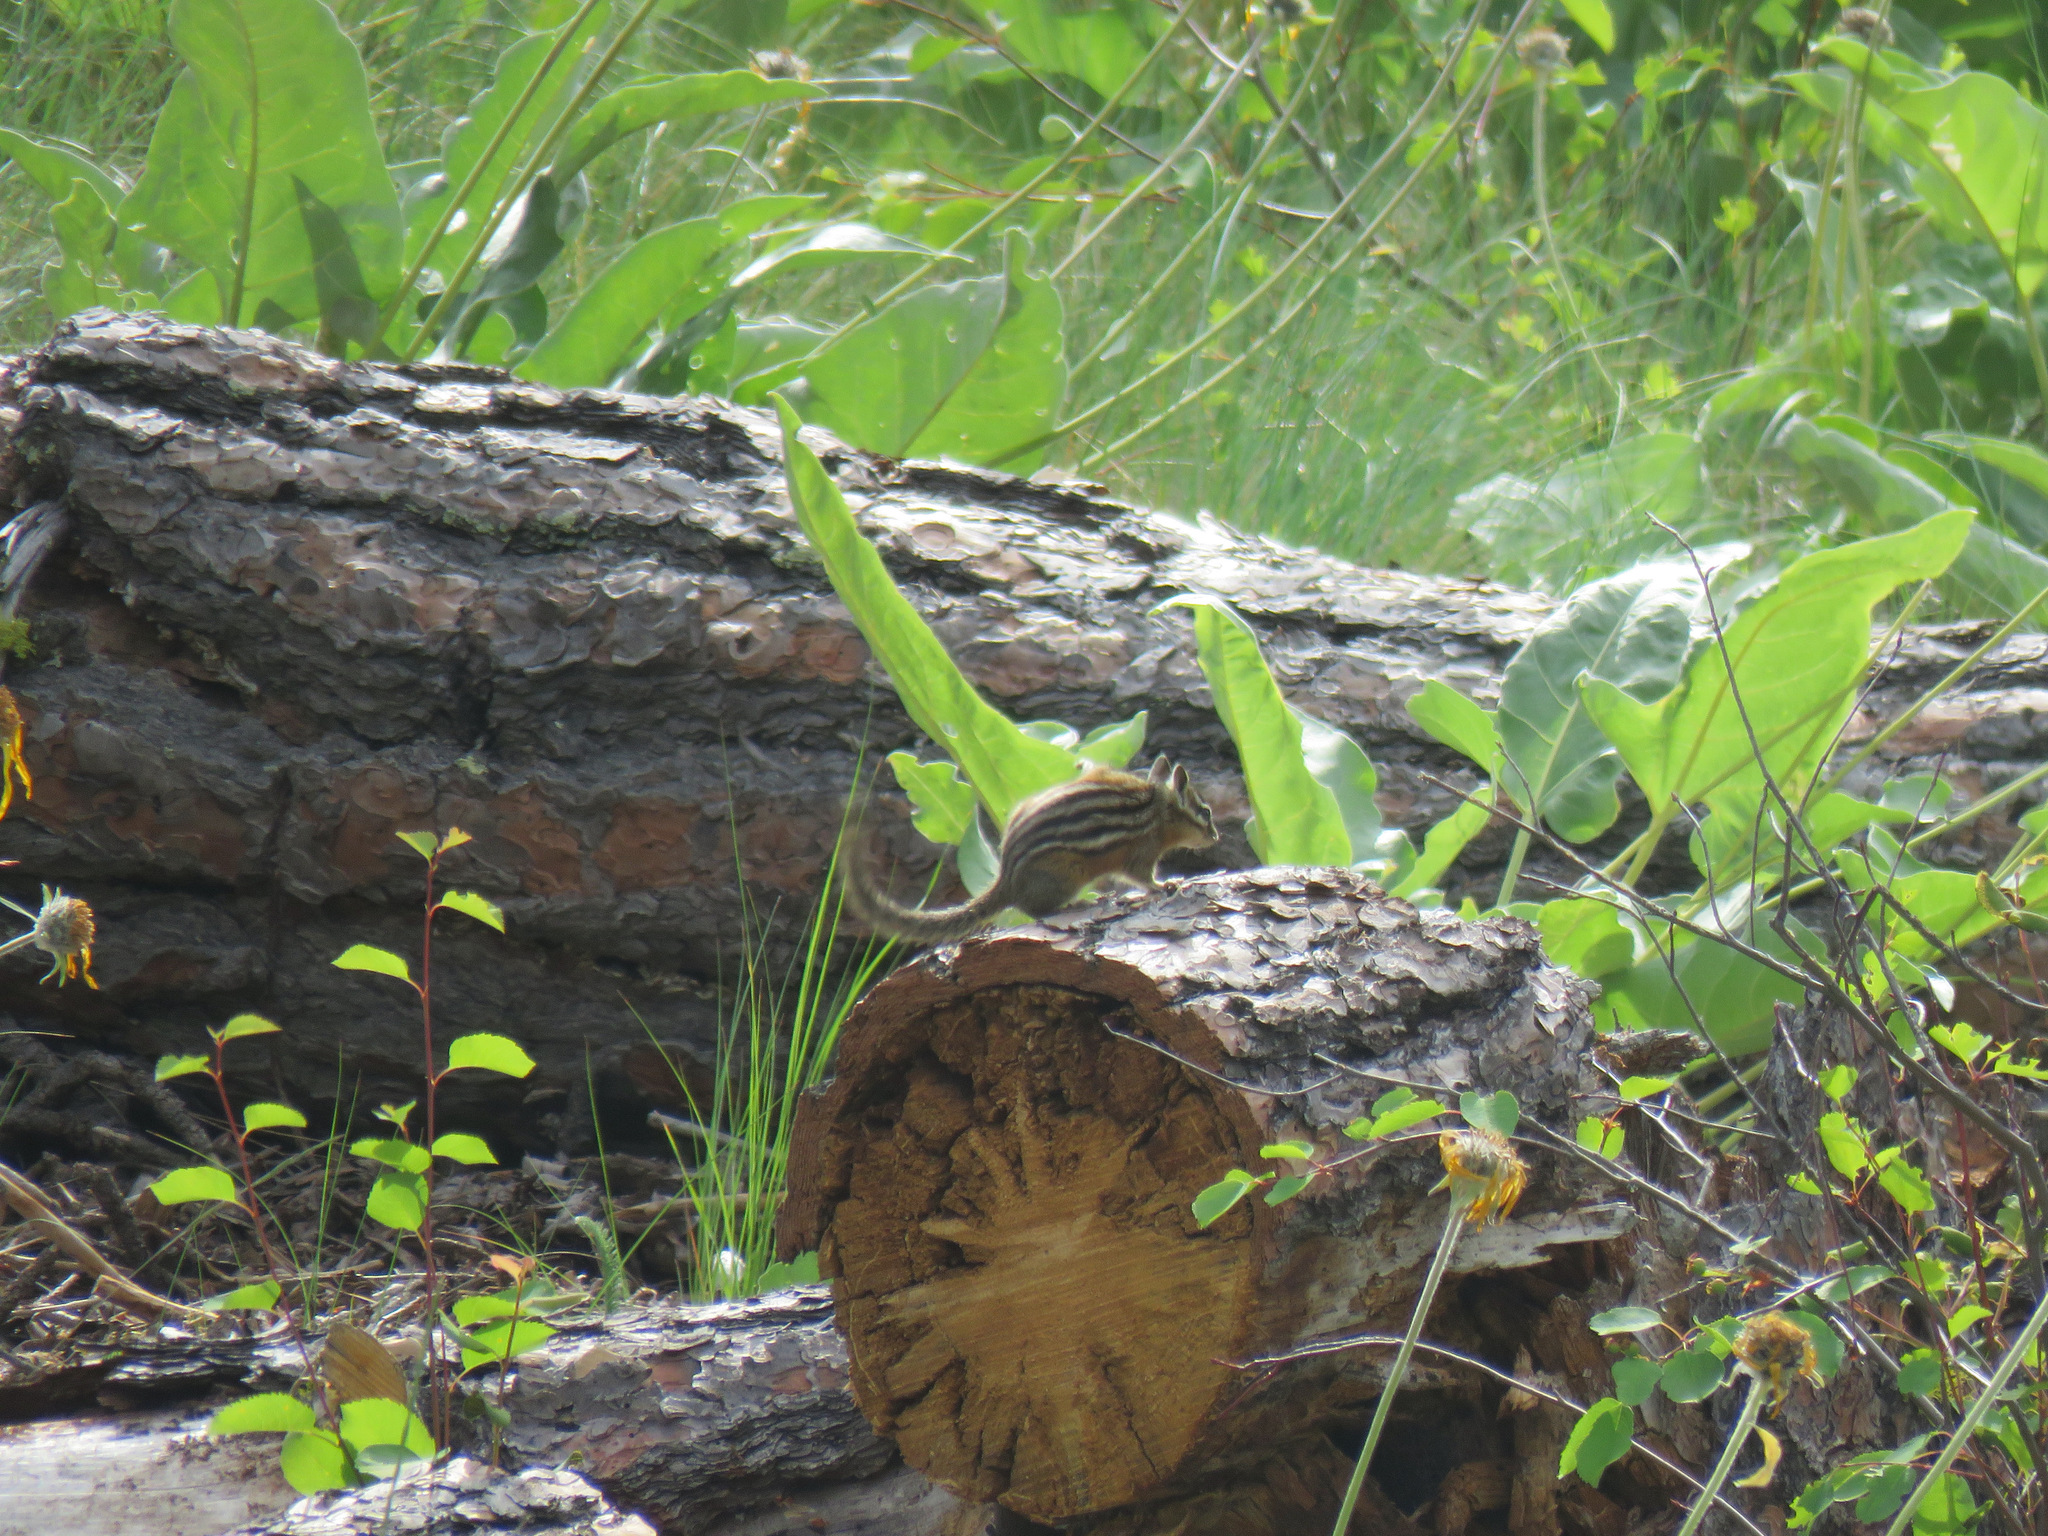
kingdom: Animalia
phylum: Chordata
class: Mammalia
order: Rodentia
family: Sciuridae
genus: Tamias
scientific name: Tamias amoenus
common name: Yellow-pine chipmunk
